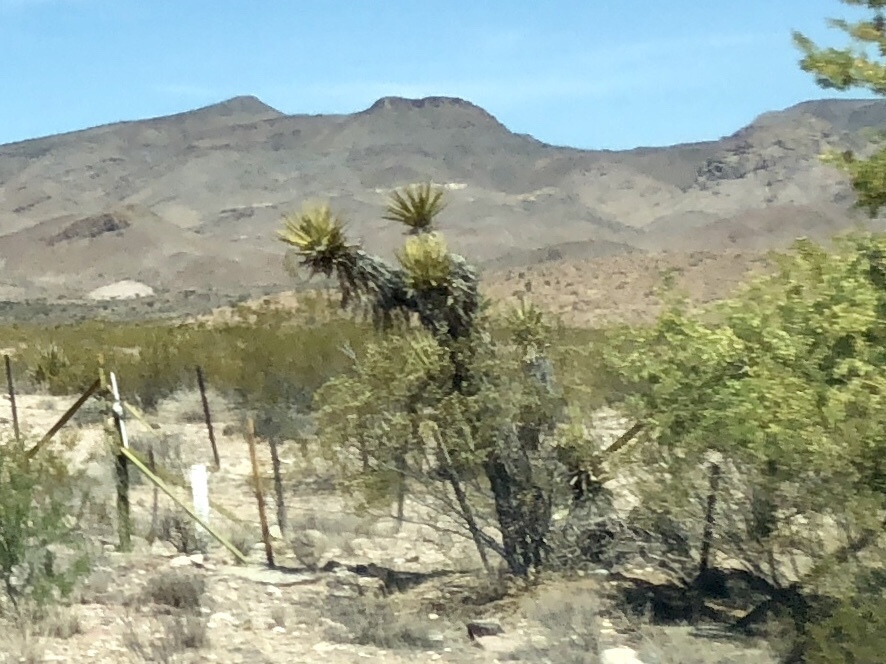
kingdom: Plantae
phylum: Tracheophyta
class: Liliopsida
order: Asparagales
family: Asparagaceae
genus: Yucca
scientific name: Yucca schidigera
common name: Mojave yucca
